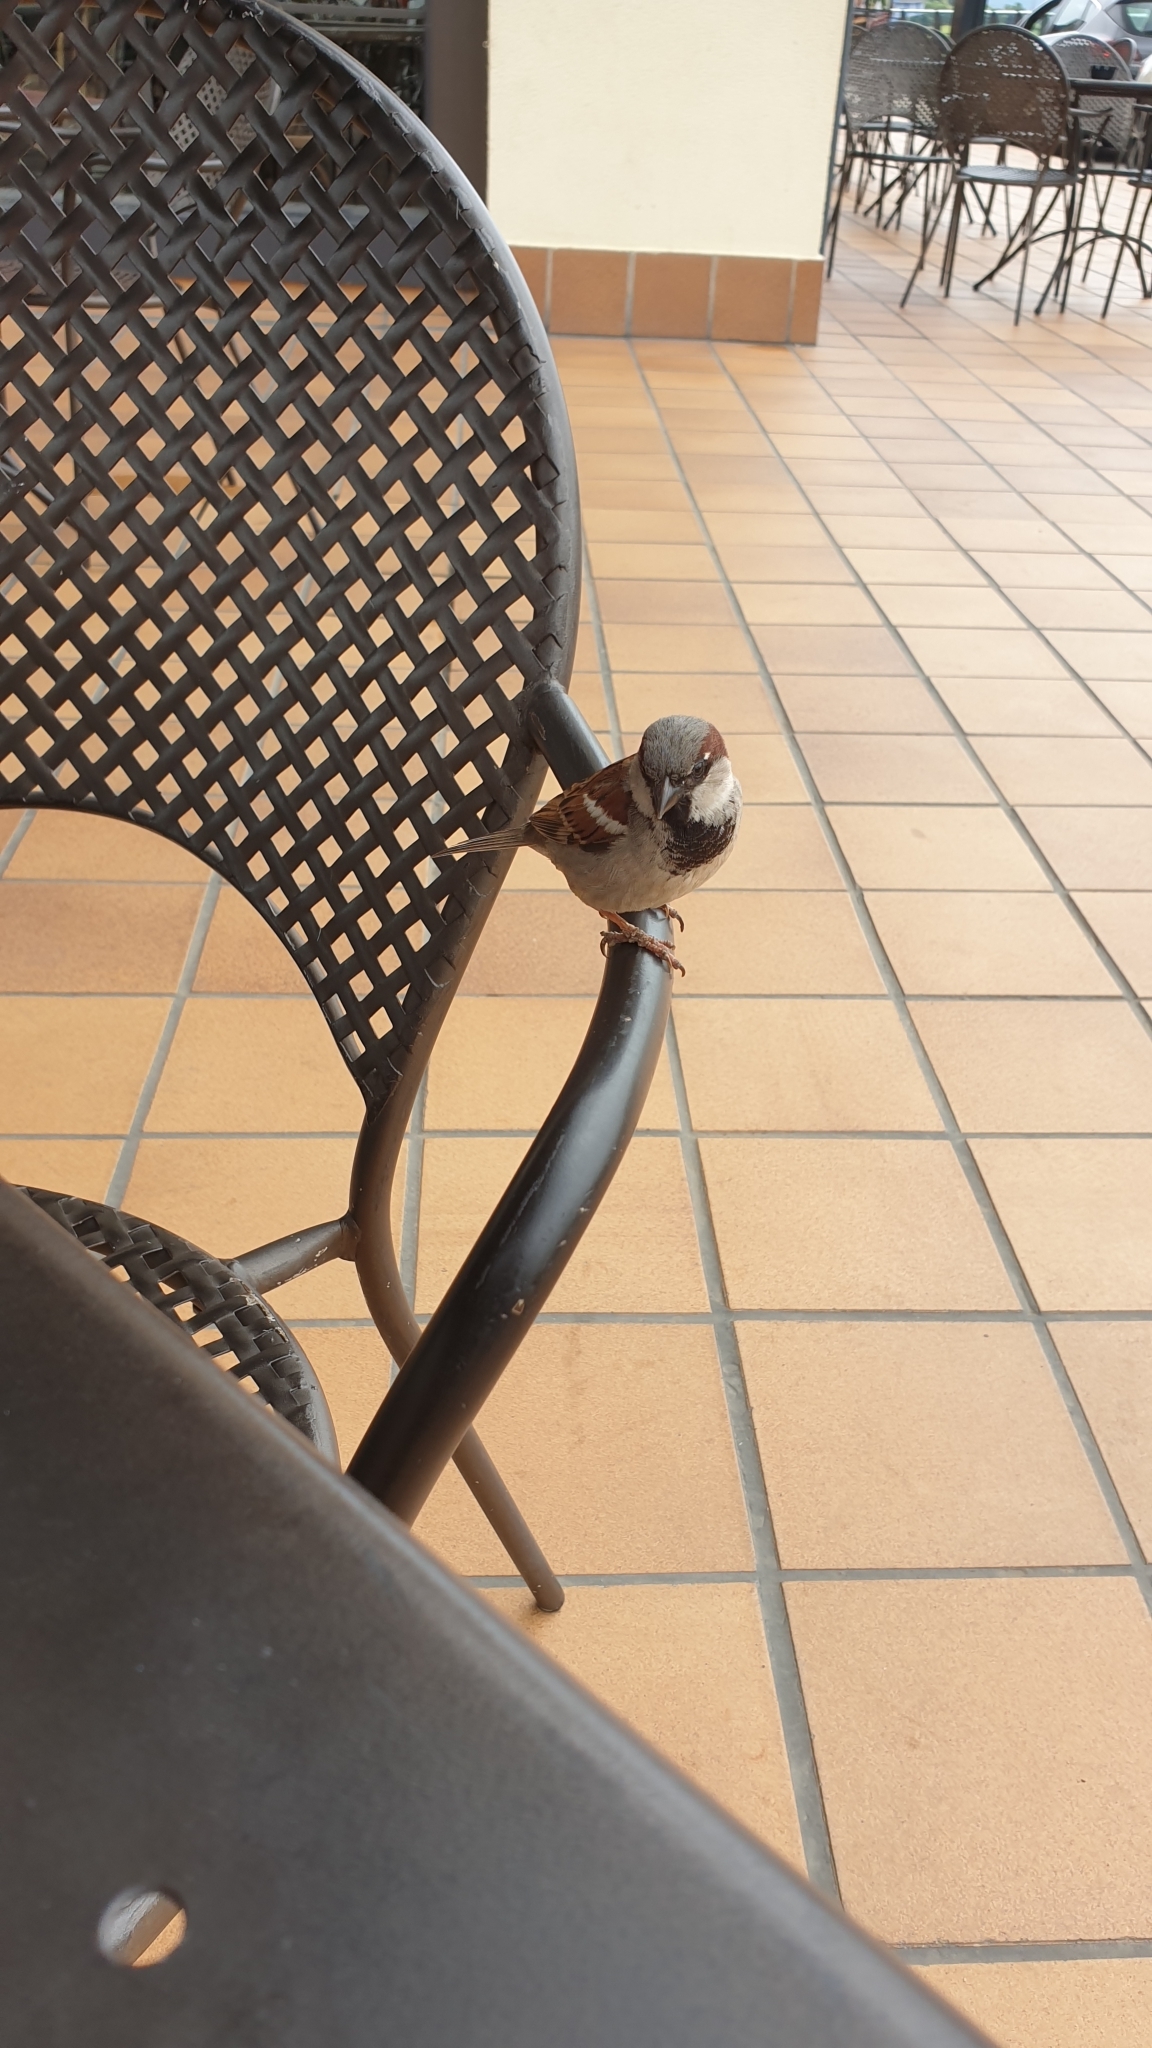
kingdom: Animalia
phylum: Chordata
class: Aves
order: Passeriformes
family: Passeridae
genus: Passer
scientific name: Passer domesticus
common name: House sparrow
